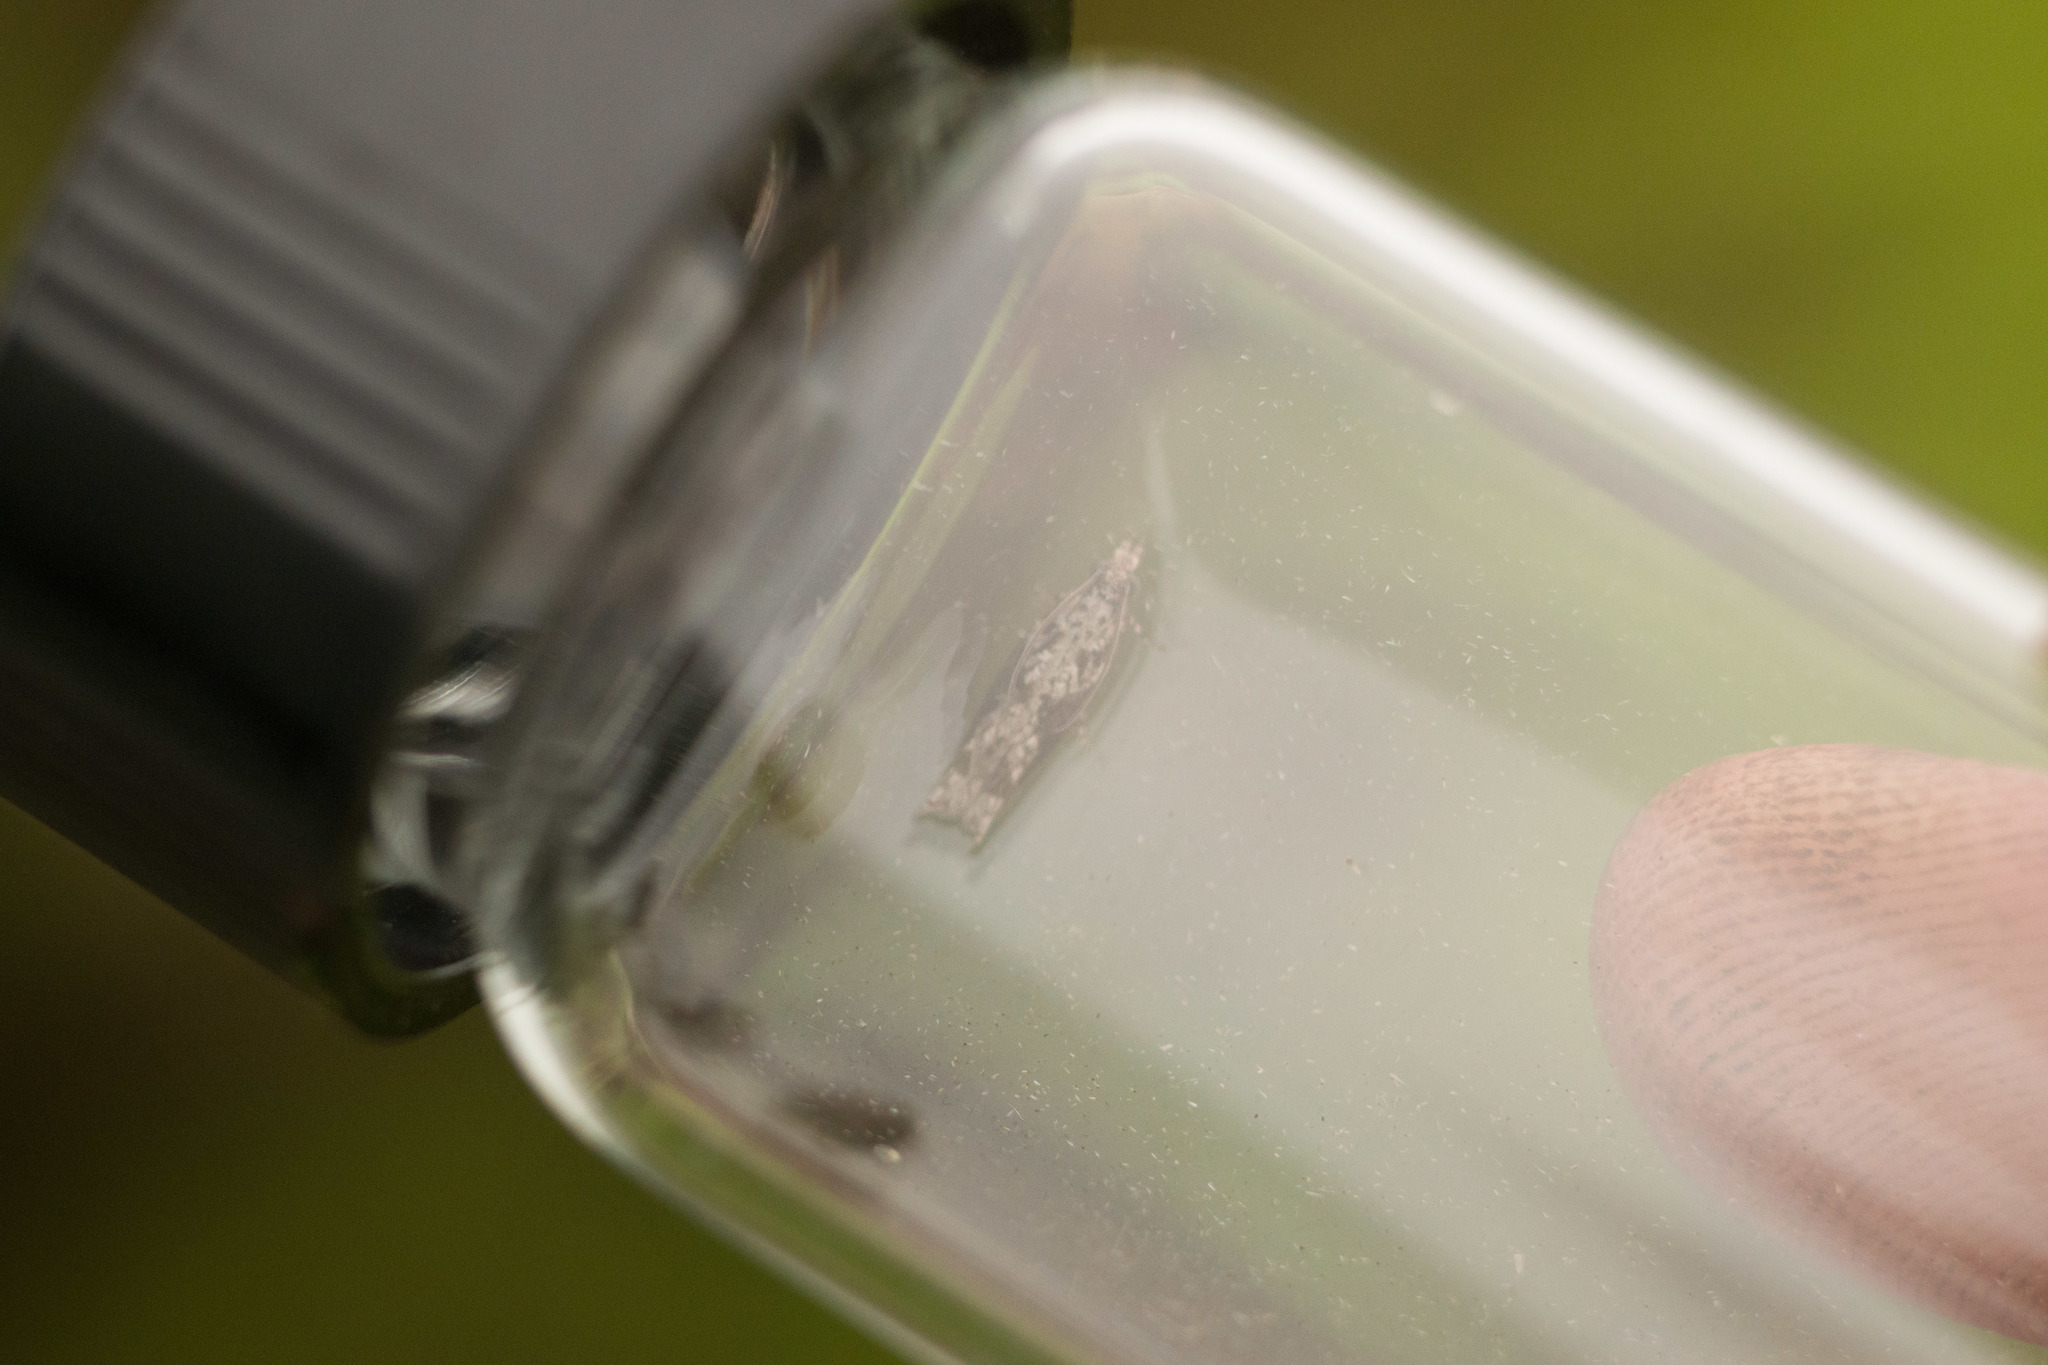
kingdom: Animalia
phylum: Arthropoda
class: Insecta
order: Lepidoptera
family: Tortricidae
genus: Eccoptocera
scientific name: Eccoptocera foetorivorans
